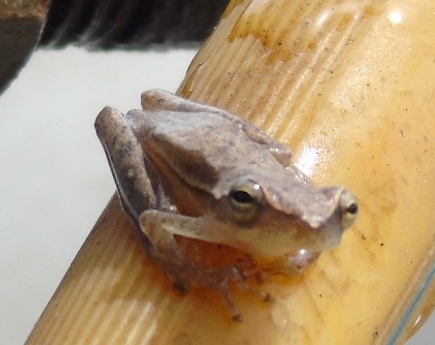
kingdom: Animalia
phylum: Chordata
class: Amphibia
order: Anura
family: Hylidae
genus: Tlalocohyla
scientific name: Tlalocohyla smithii
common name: Dwarf mexican treefrog
